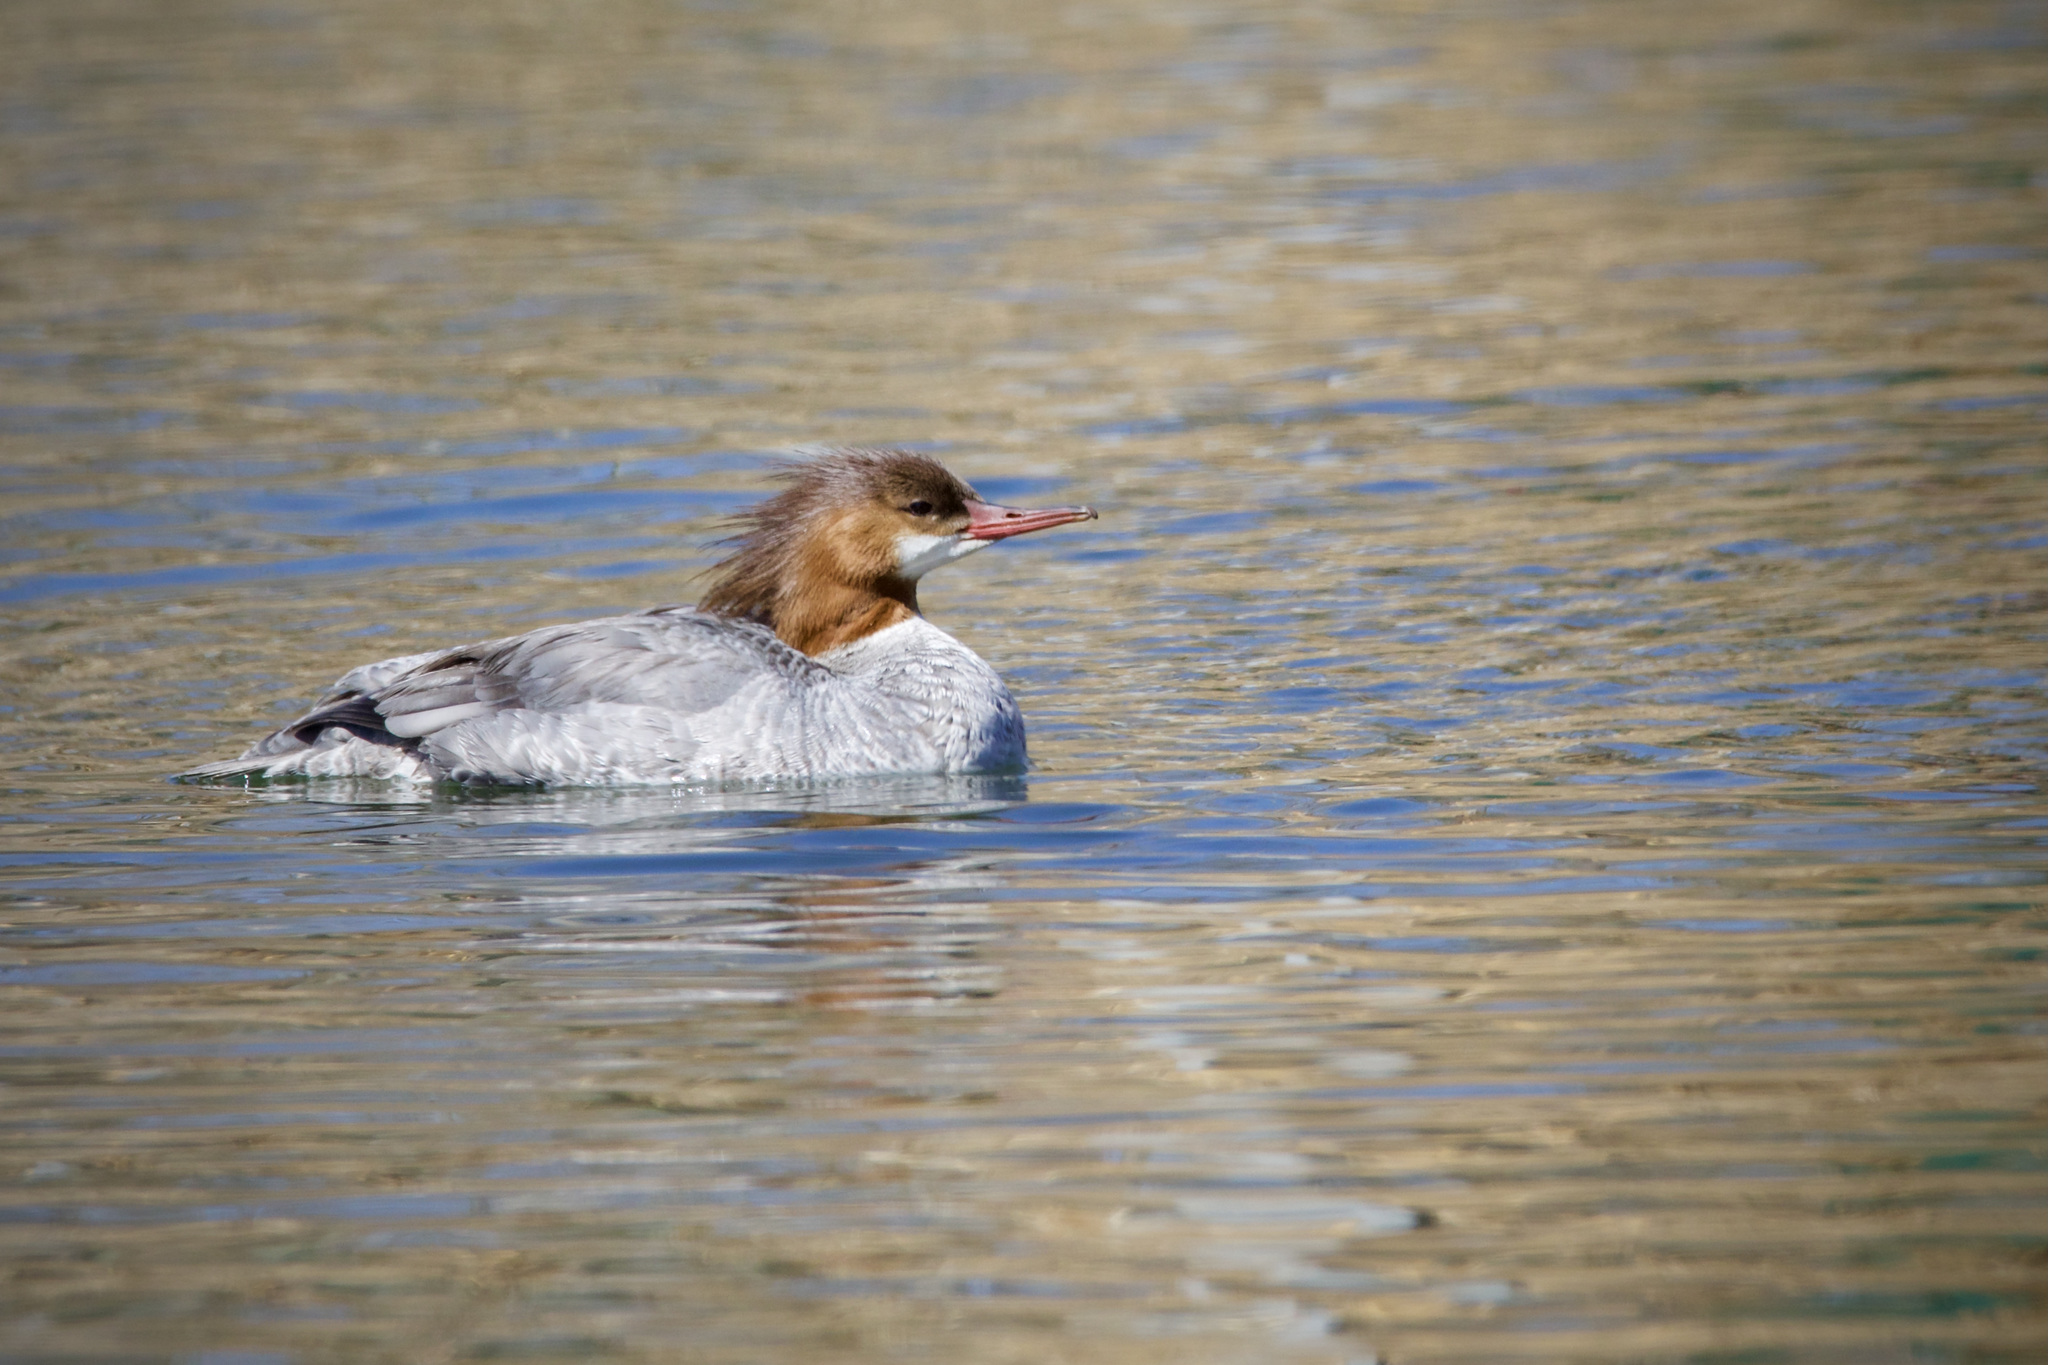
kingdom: Animalia
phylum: Chordata
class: Aves
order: Anseriformes
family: Anatidae
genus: Mergus
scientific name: Mergus merganser
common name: Common merganser
